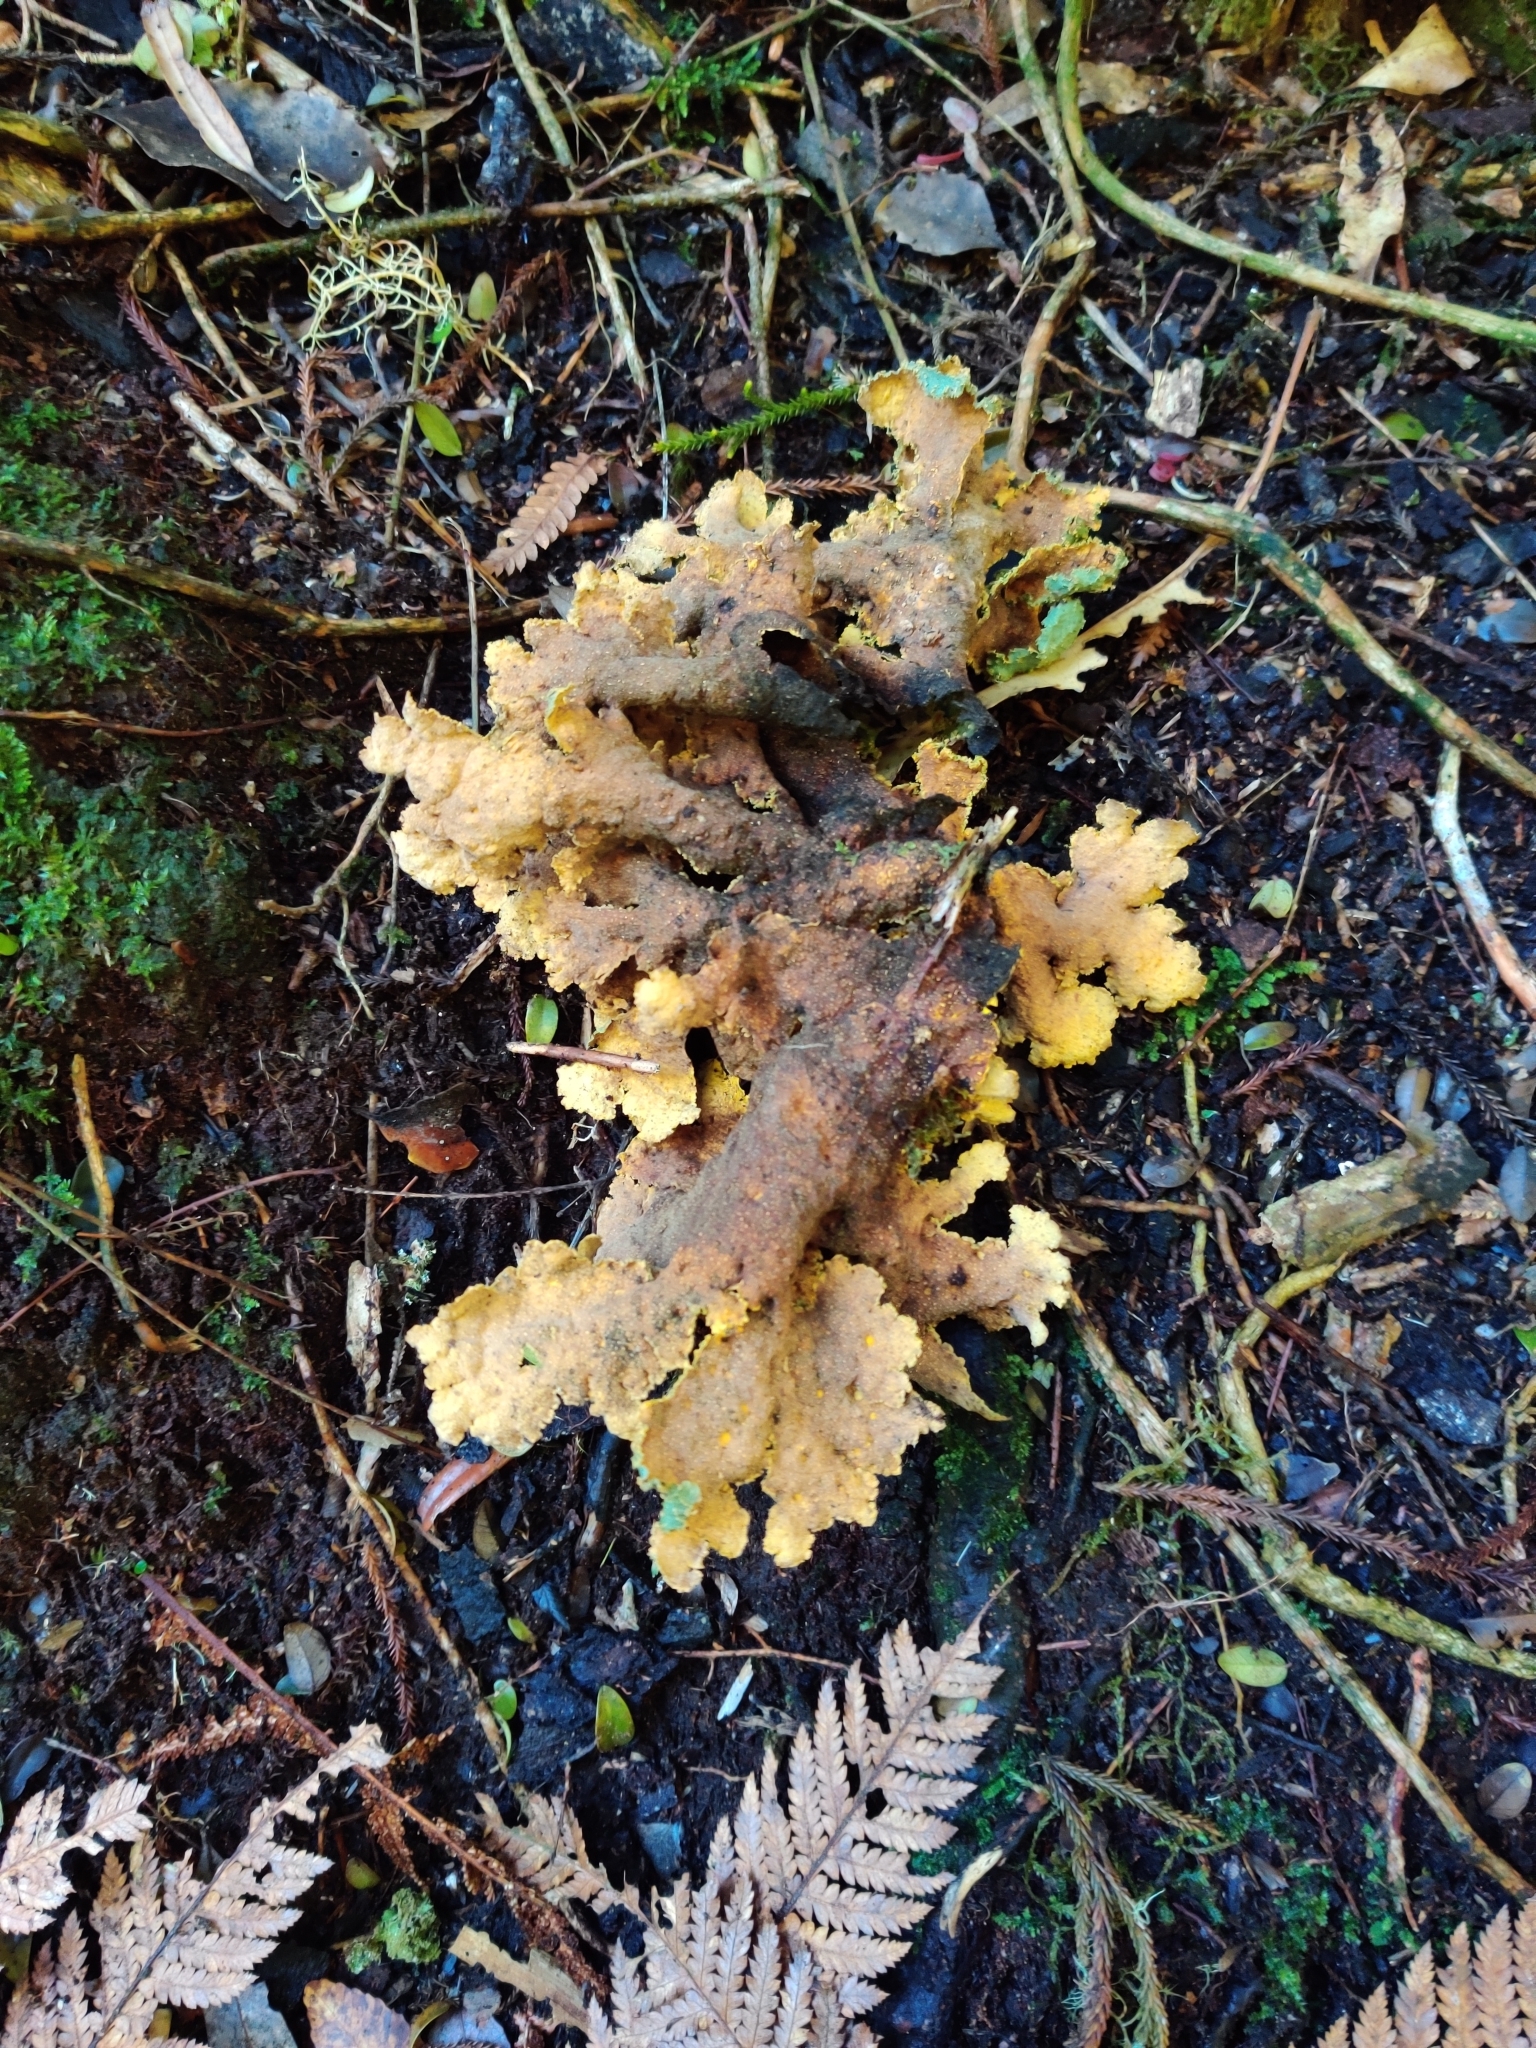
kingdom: Fungi
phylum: Ascomycota
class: Lecanoromycetes
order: Peltigerales
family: Lobariaceae
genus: Yarrumia
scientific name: Yarrumia colensoi
